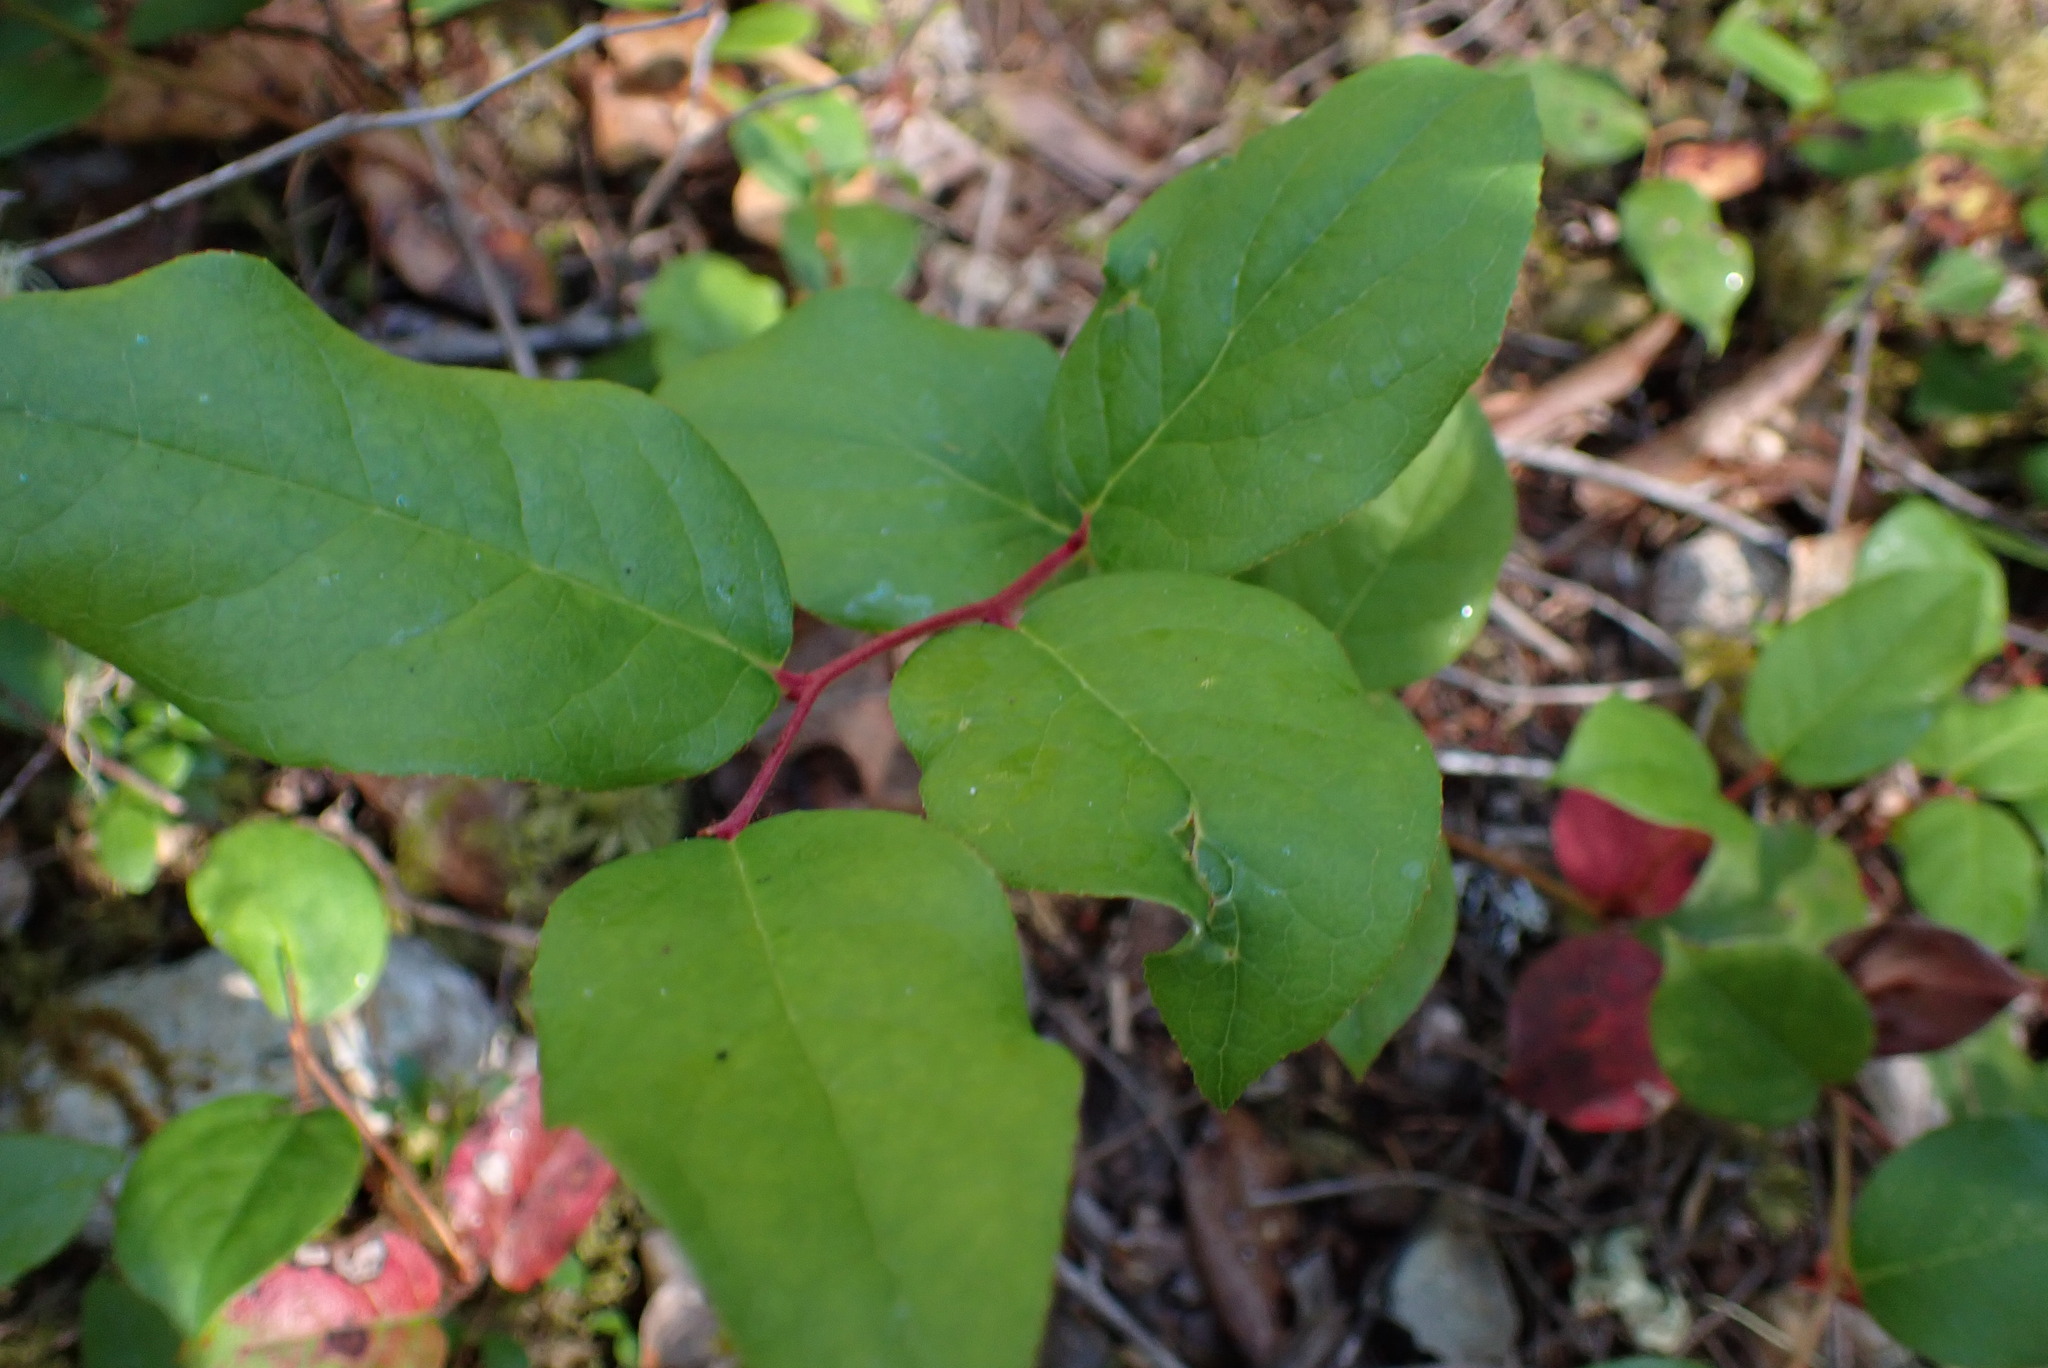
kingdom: Plantae
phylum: Tracheophyta
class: Magnoliopsida
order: Ericales
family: Ericaceae
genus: Gaultheria
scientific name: Gaultheria shallon
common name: Shallon
